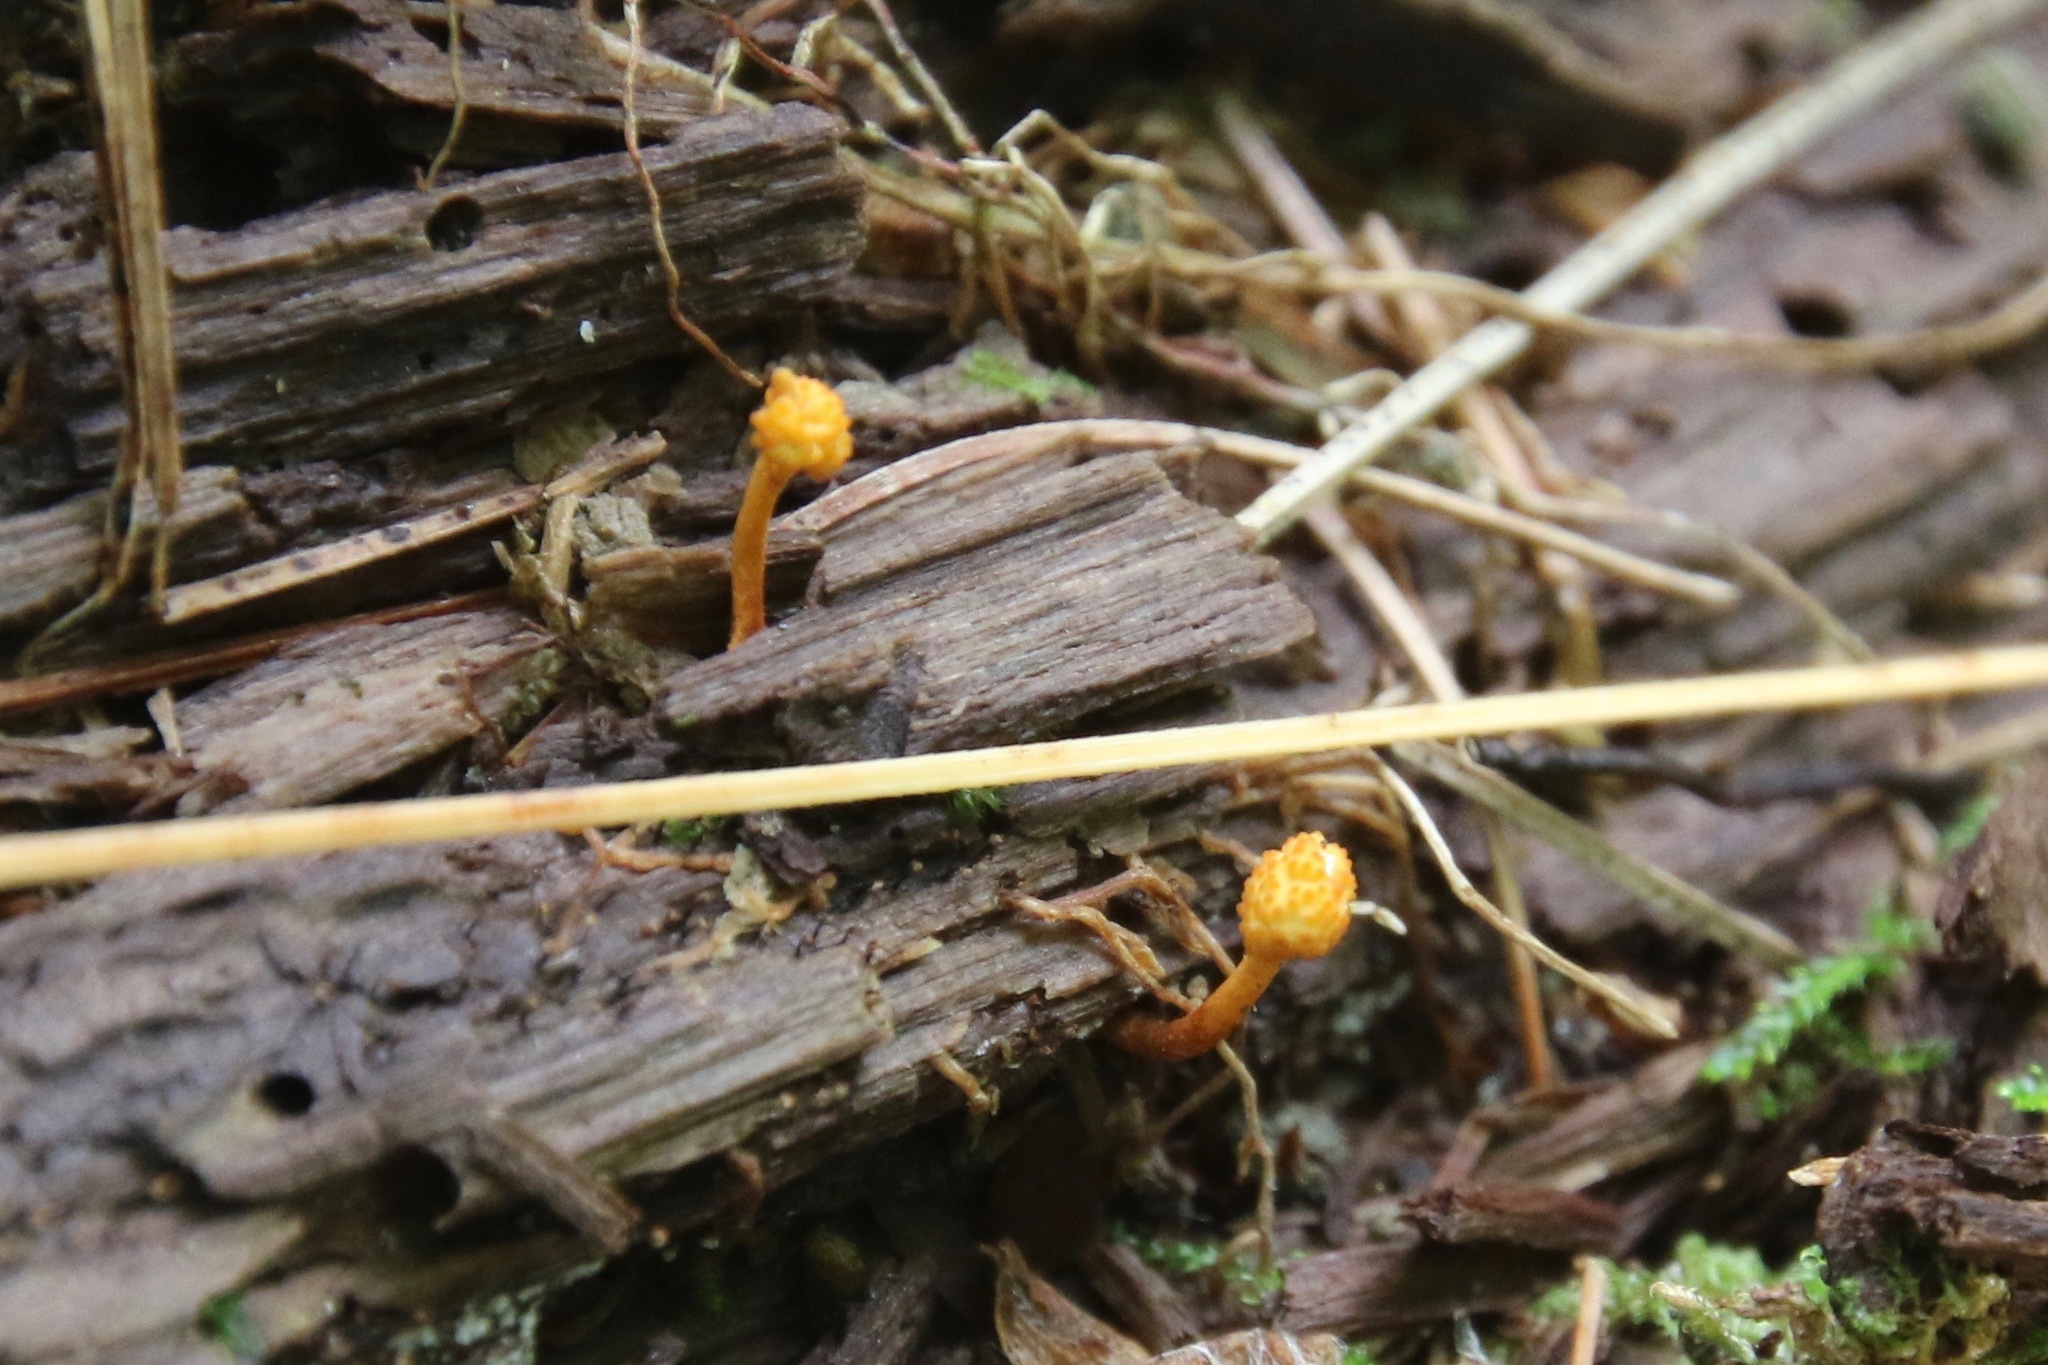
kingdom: Fungi
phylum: Ascomycota
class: Sordariomycetes
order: Hypocreales
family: Ophiocordycipitaceae
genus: Ophiocordyceps
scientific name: Ophiocordyceps variabilis
